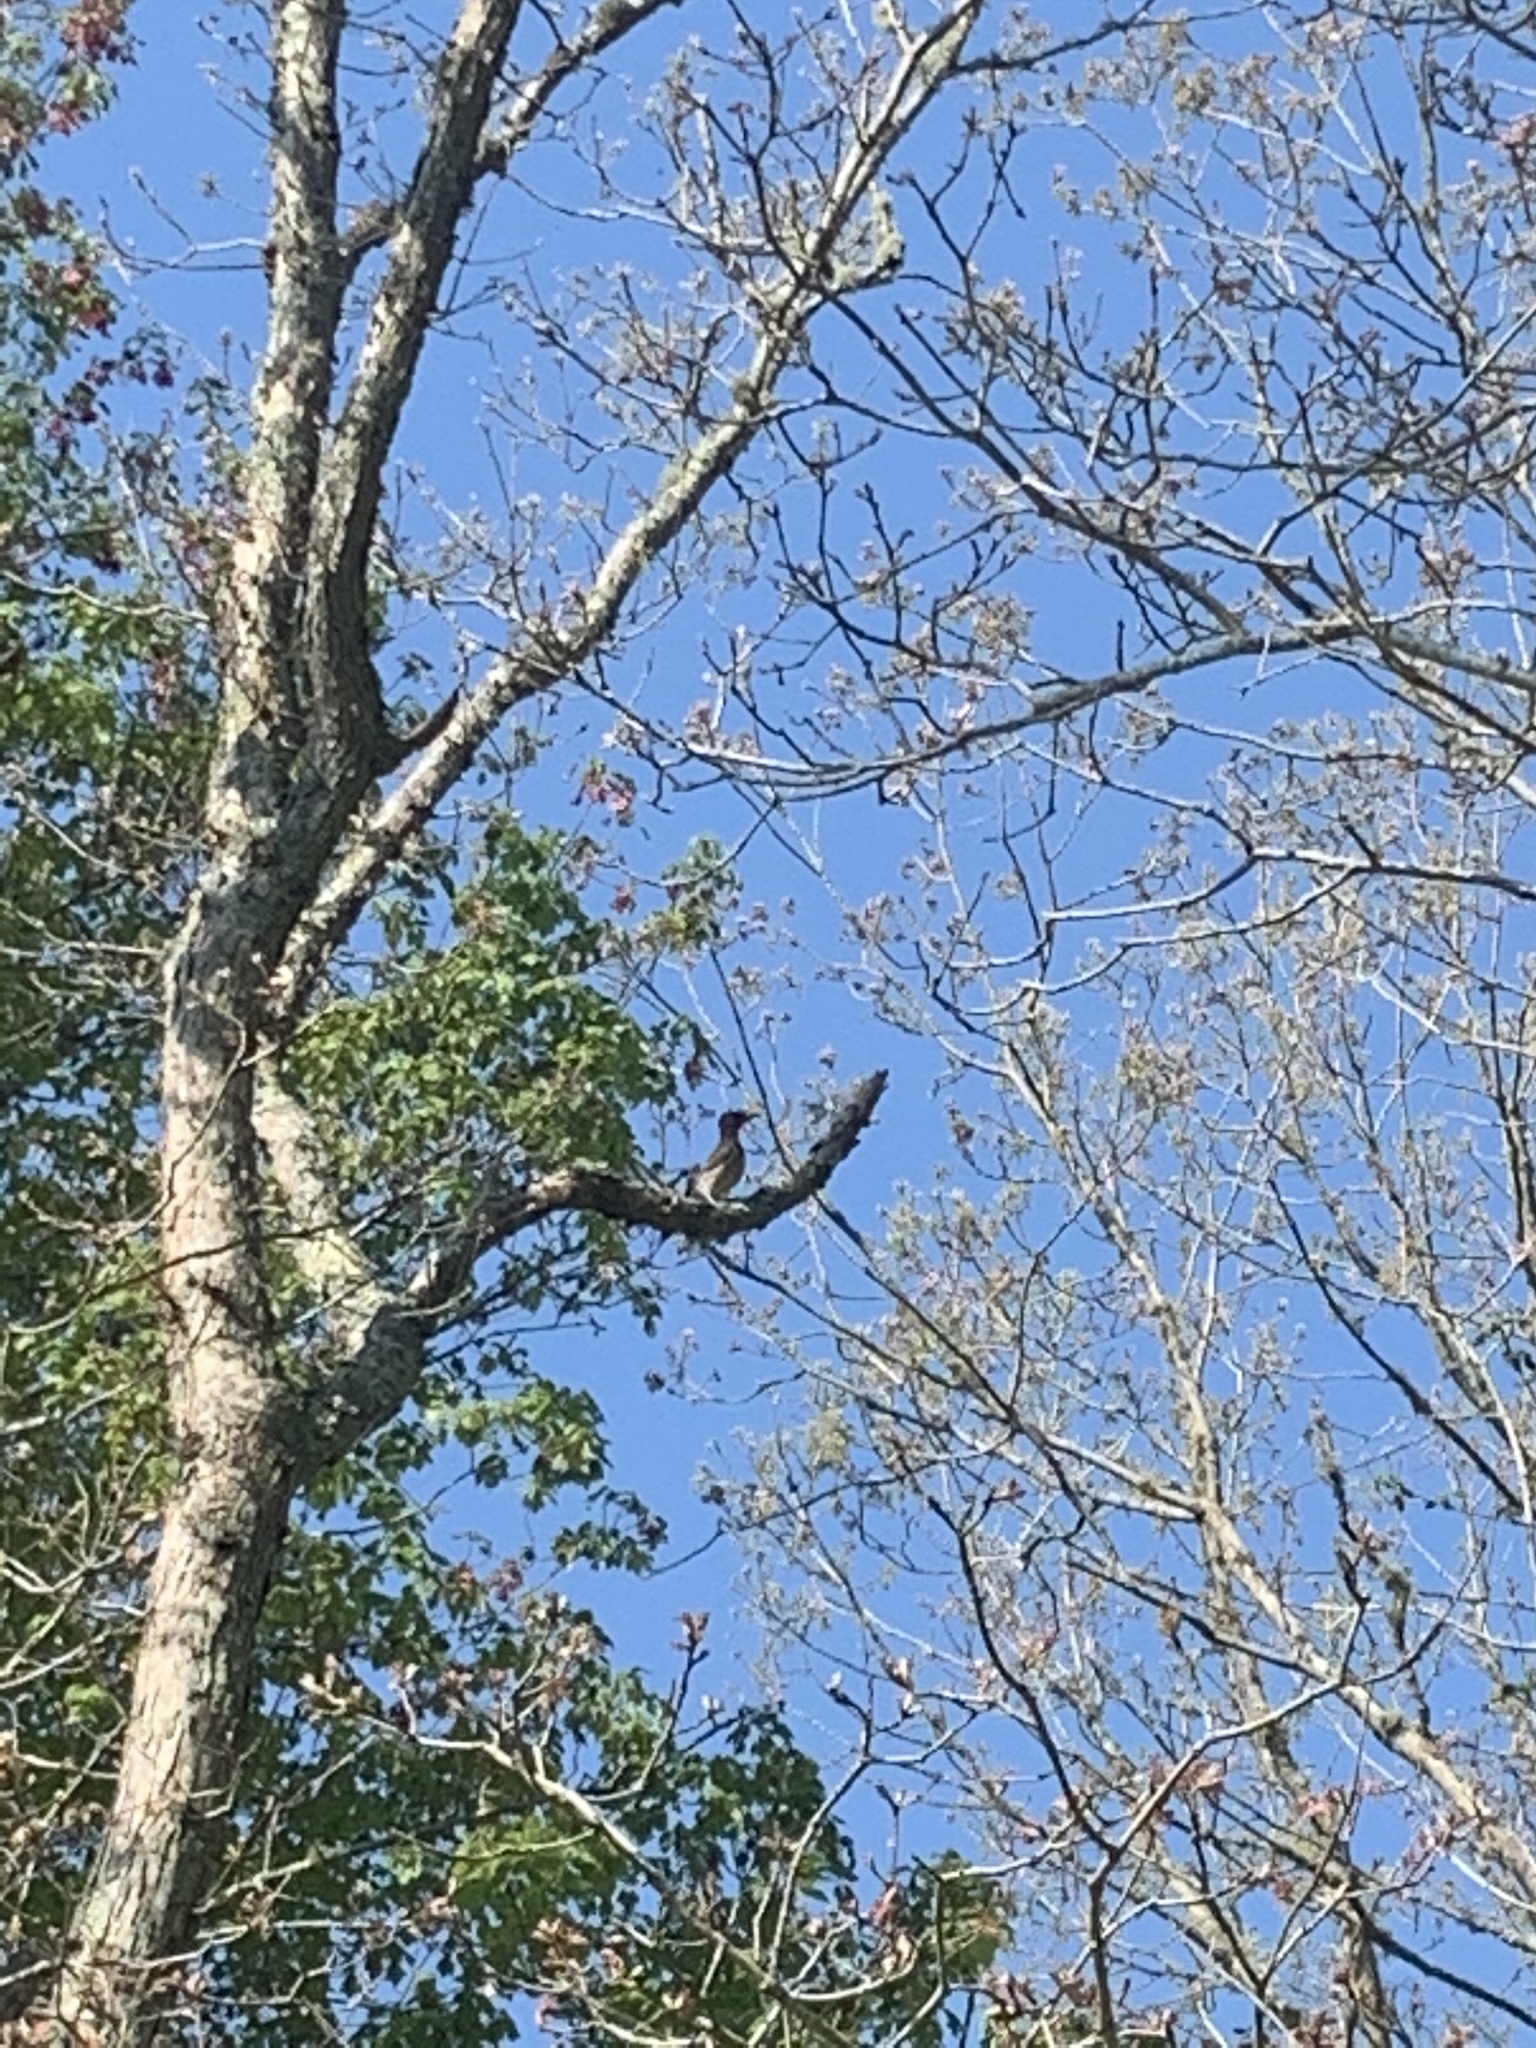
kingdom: Animalia
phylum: Chordata
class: Aves
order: Piciformes
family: Picidae
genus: Colaptes
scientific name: Colaptes auratus
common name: Northern flicker
